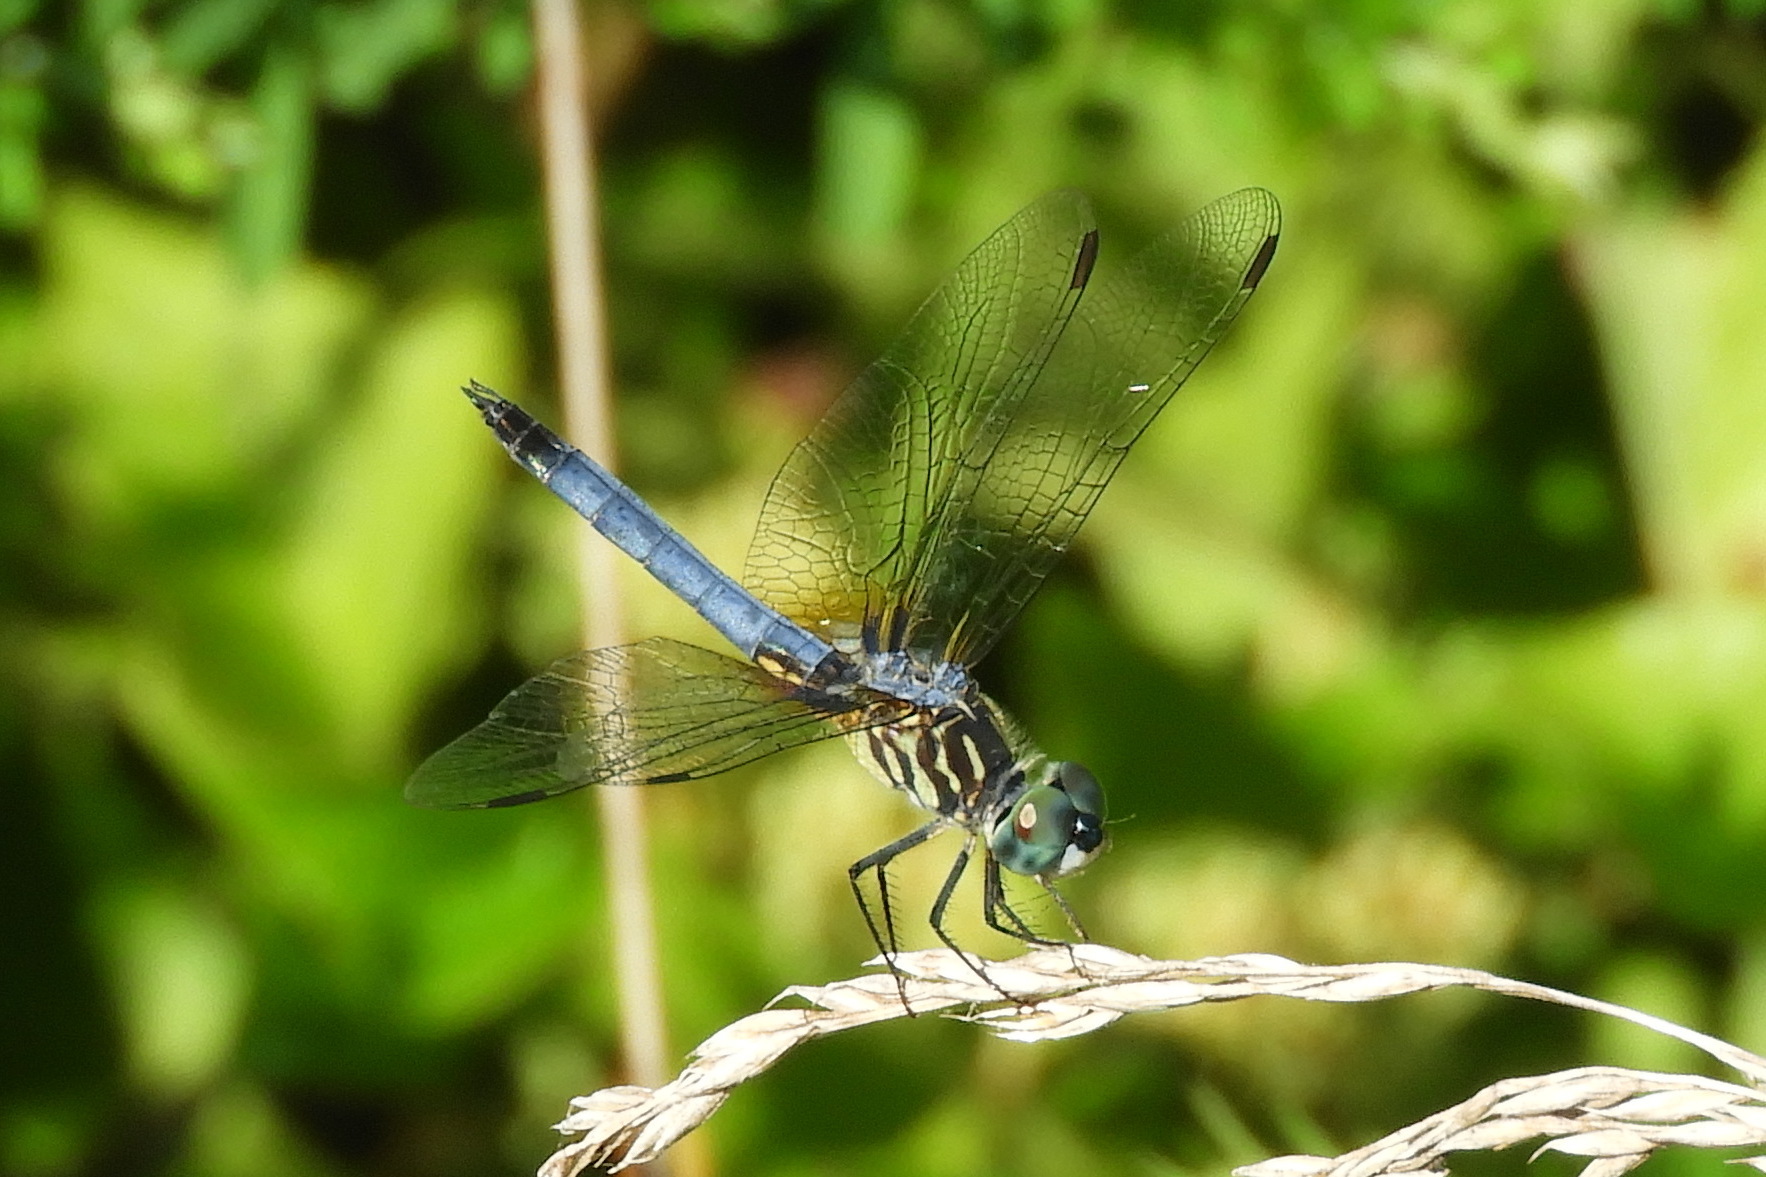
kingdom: Animalia
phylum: Arthropoda
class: Insecta
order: Odonata
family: Libellulidae
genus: Pachydiplax
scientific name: Pachydiplax longipennis
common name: Blue dasher
